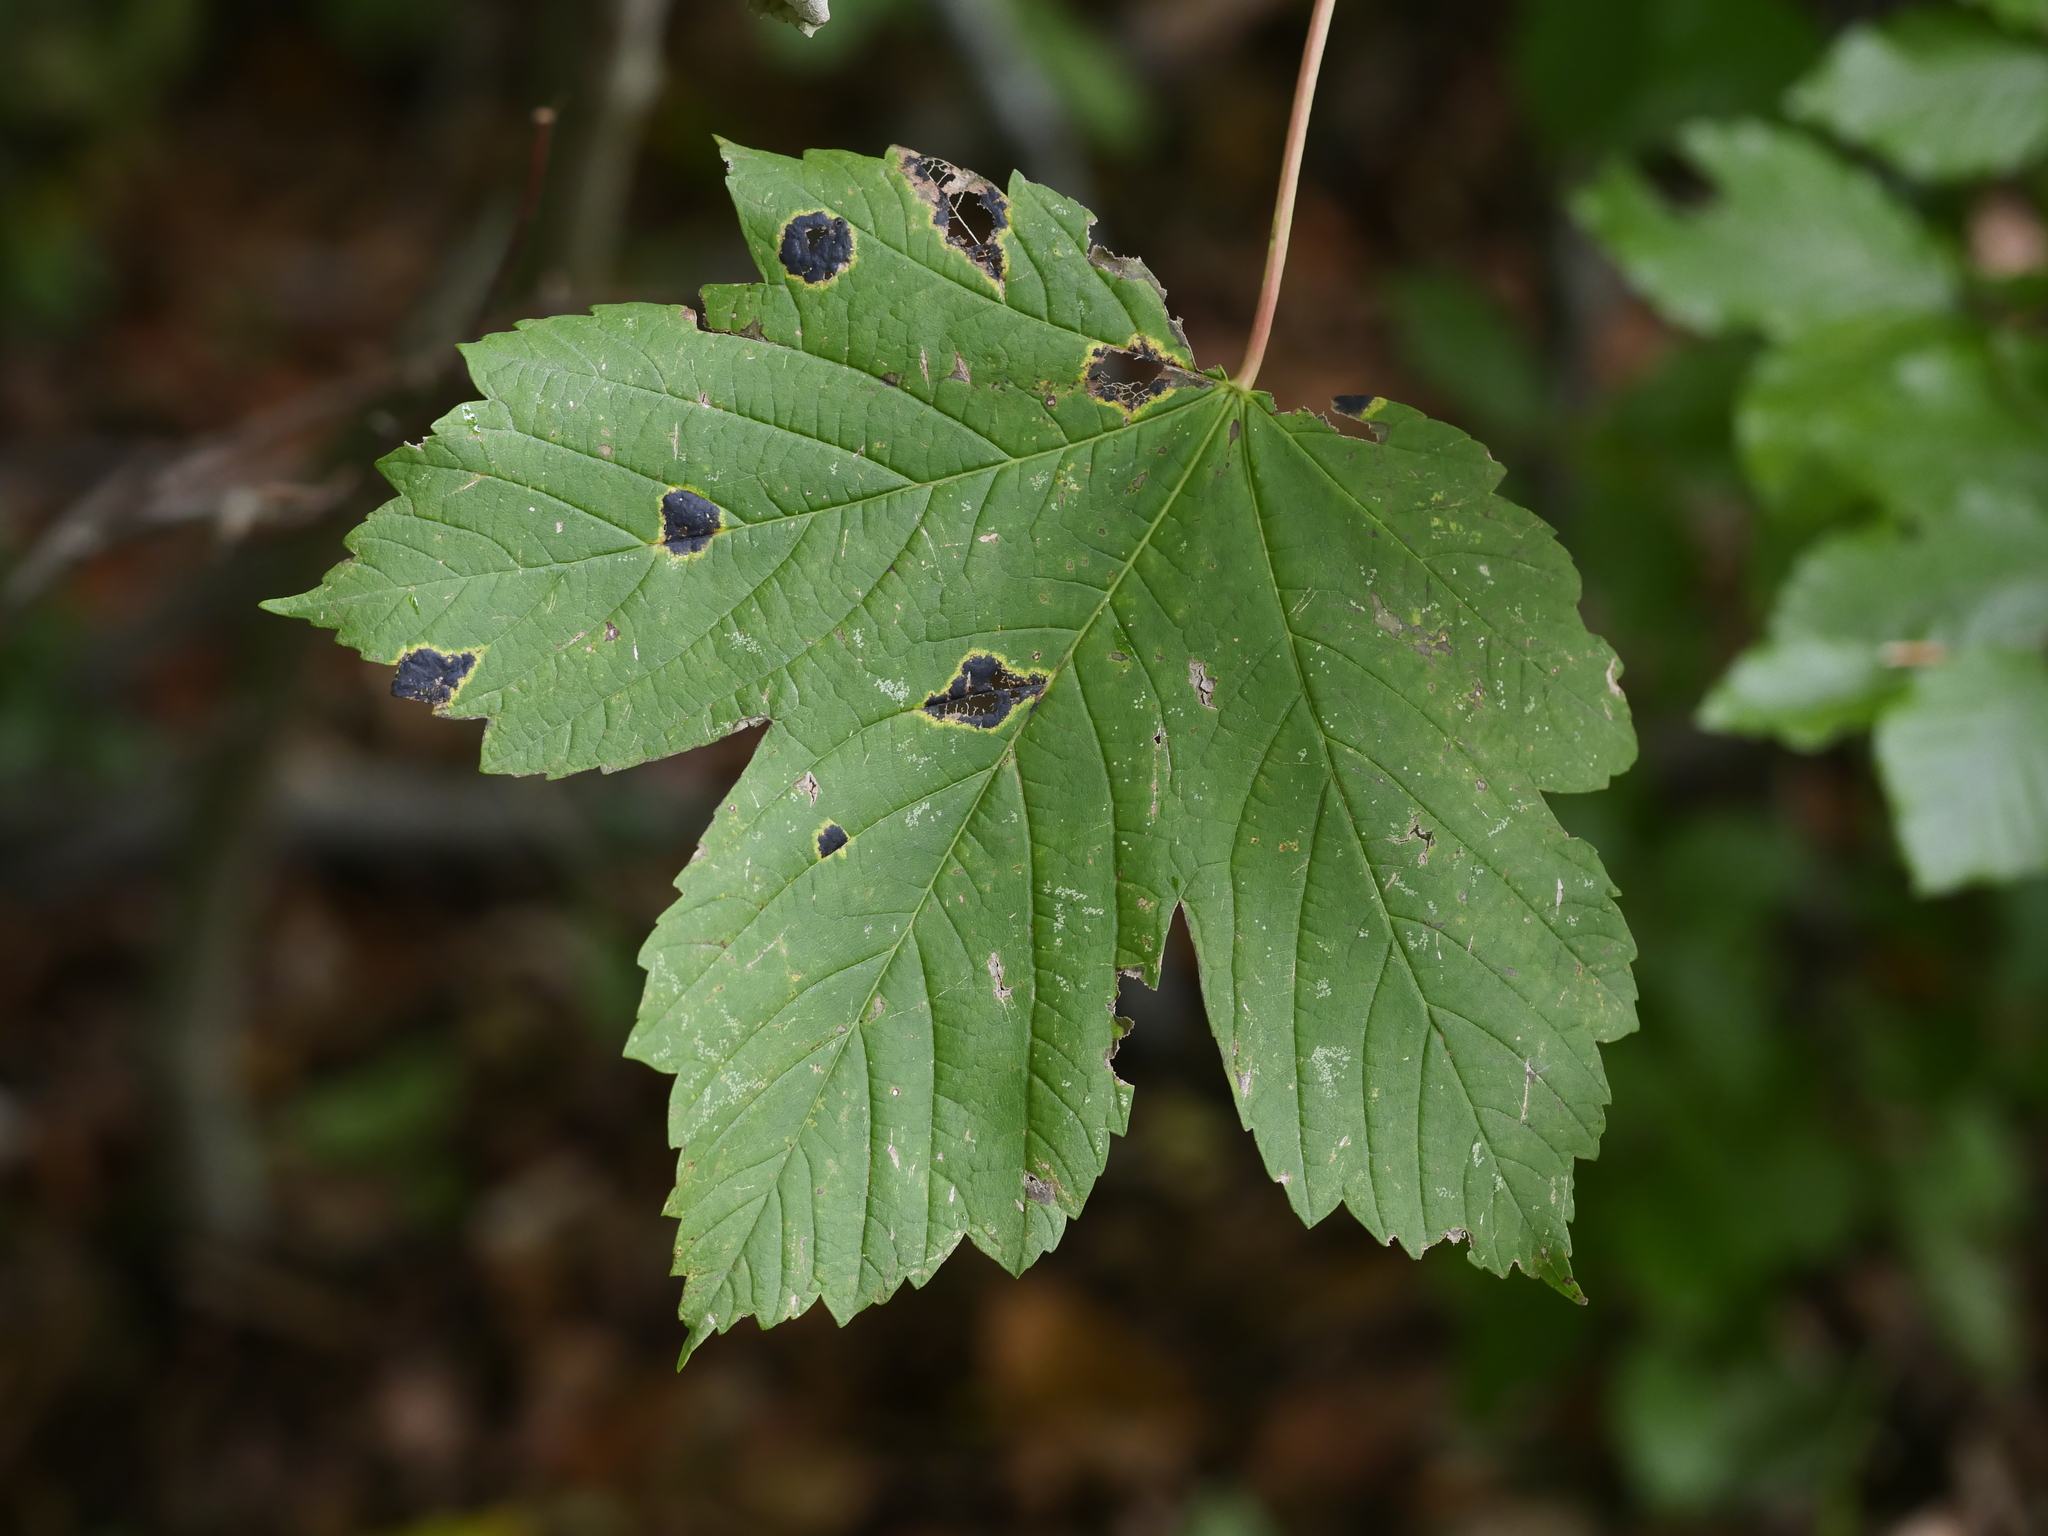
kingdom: Plantae
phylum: Tracheophyta
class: Magnoliopsida
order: Sapindales
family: Sapindaceae
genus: Acer
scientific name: Acer pseudoplatanus
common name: Sycamore
